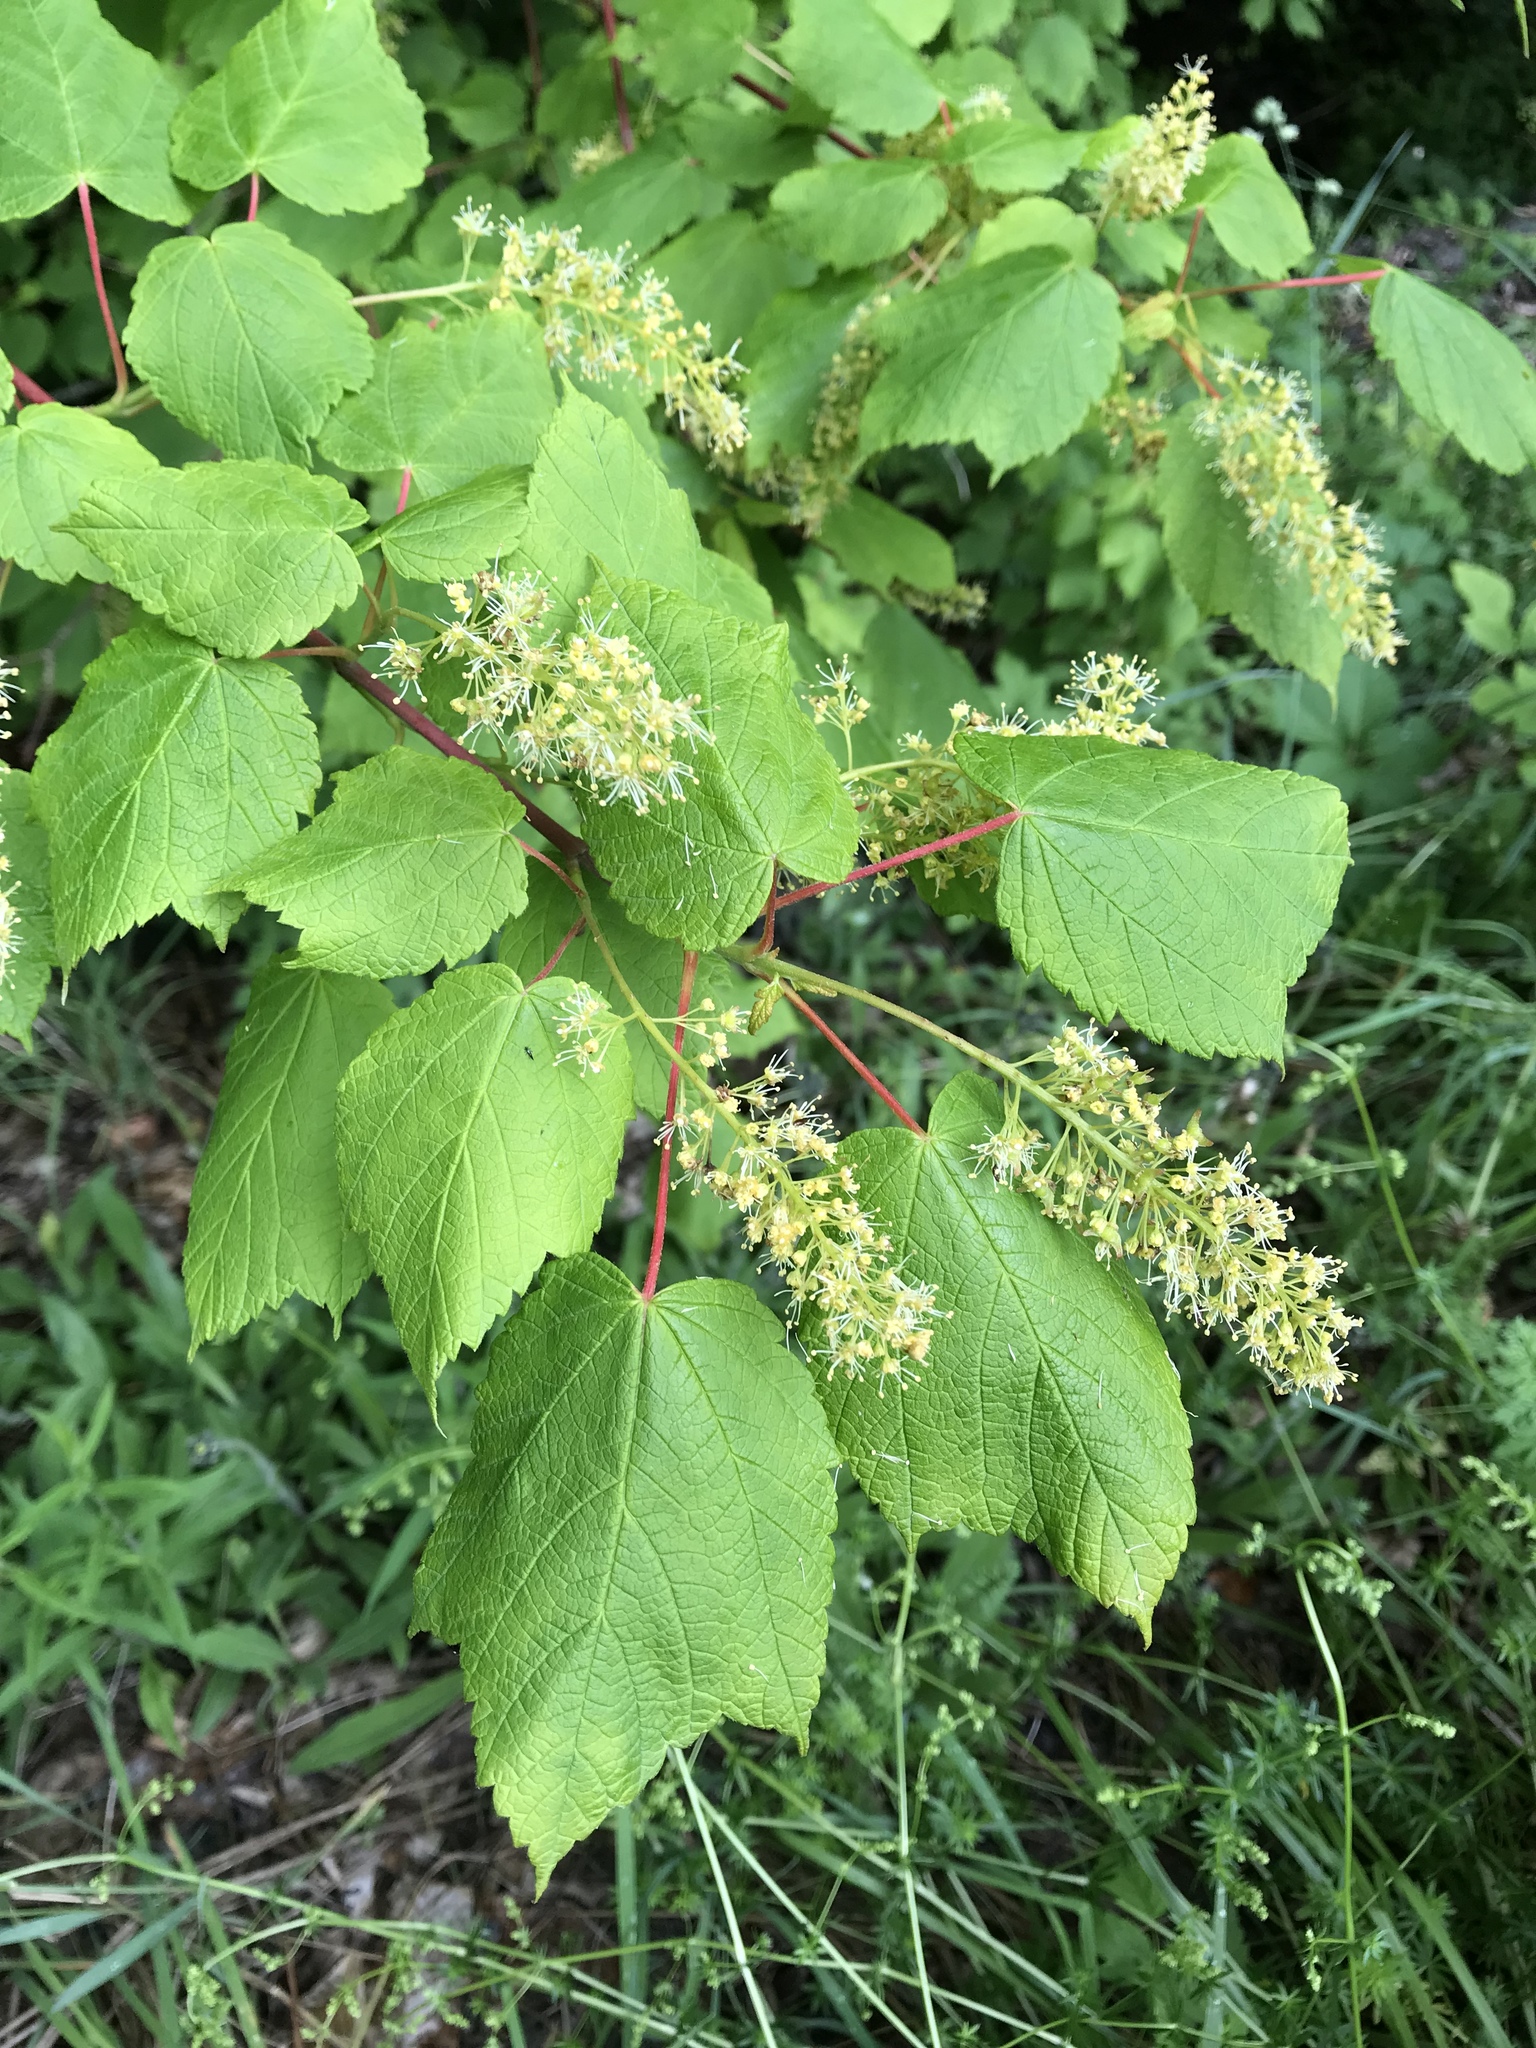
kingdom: Plantae
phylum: Tracheophyta
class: Magnoliopsida
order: Sapindales
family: Sapindaceae
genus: Acer
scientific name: Acer spicatum
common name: Mountain maple
